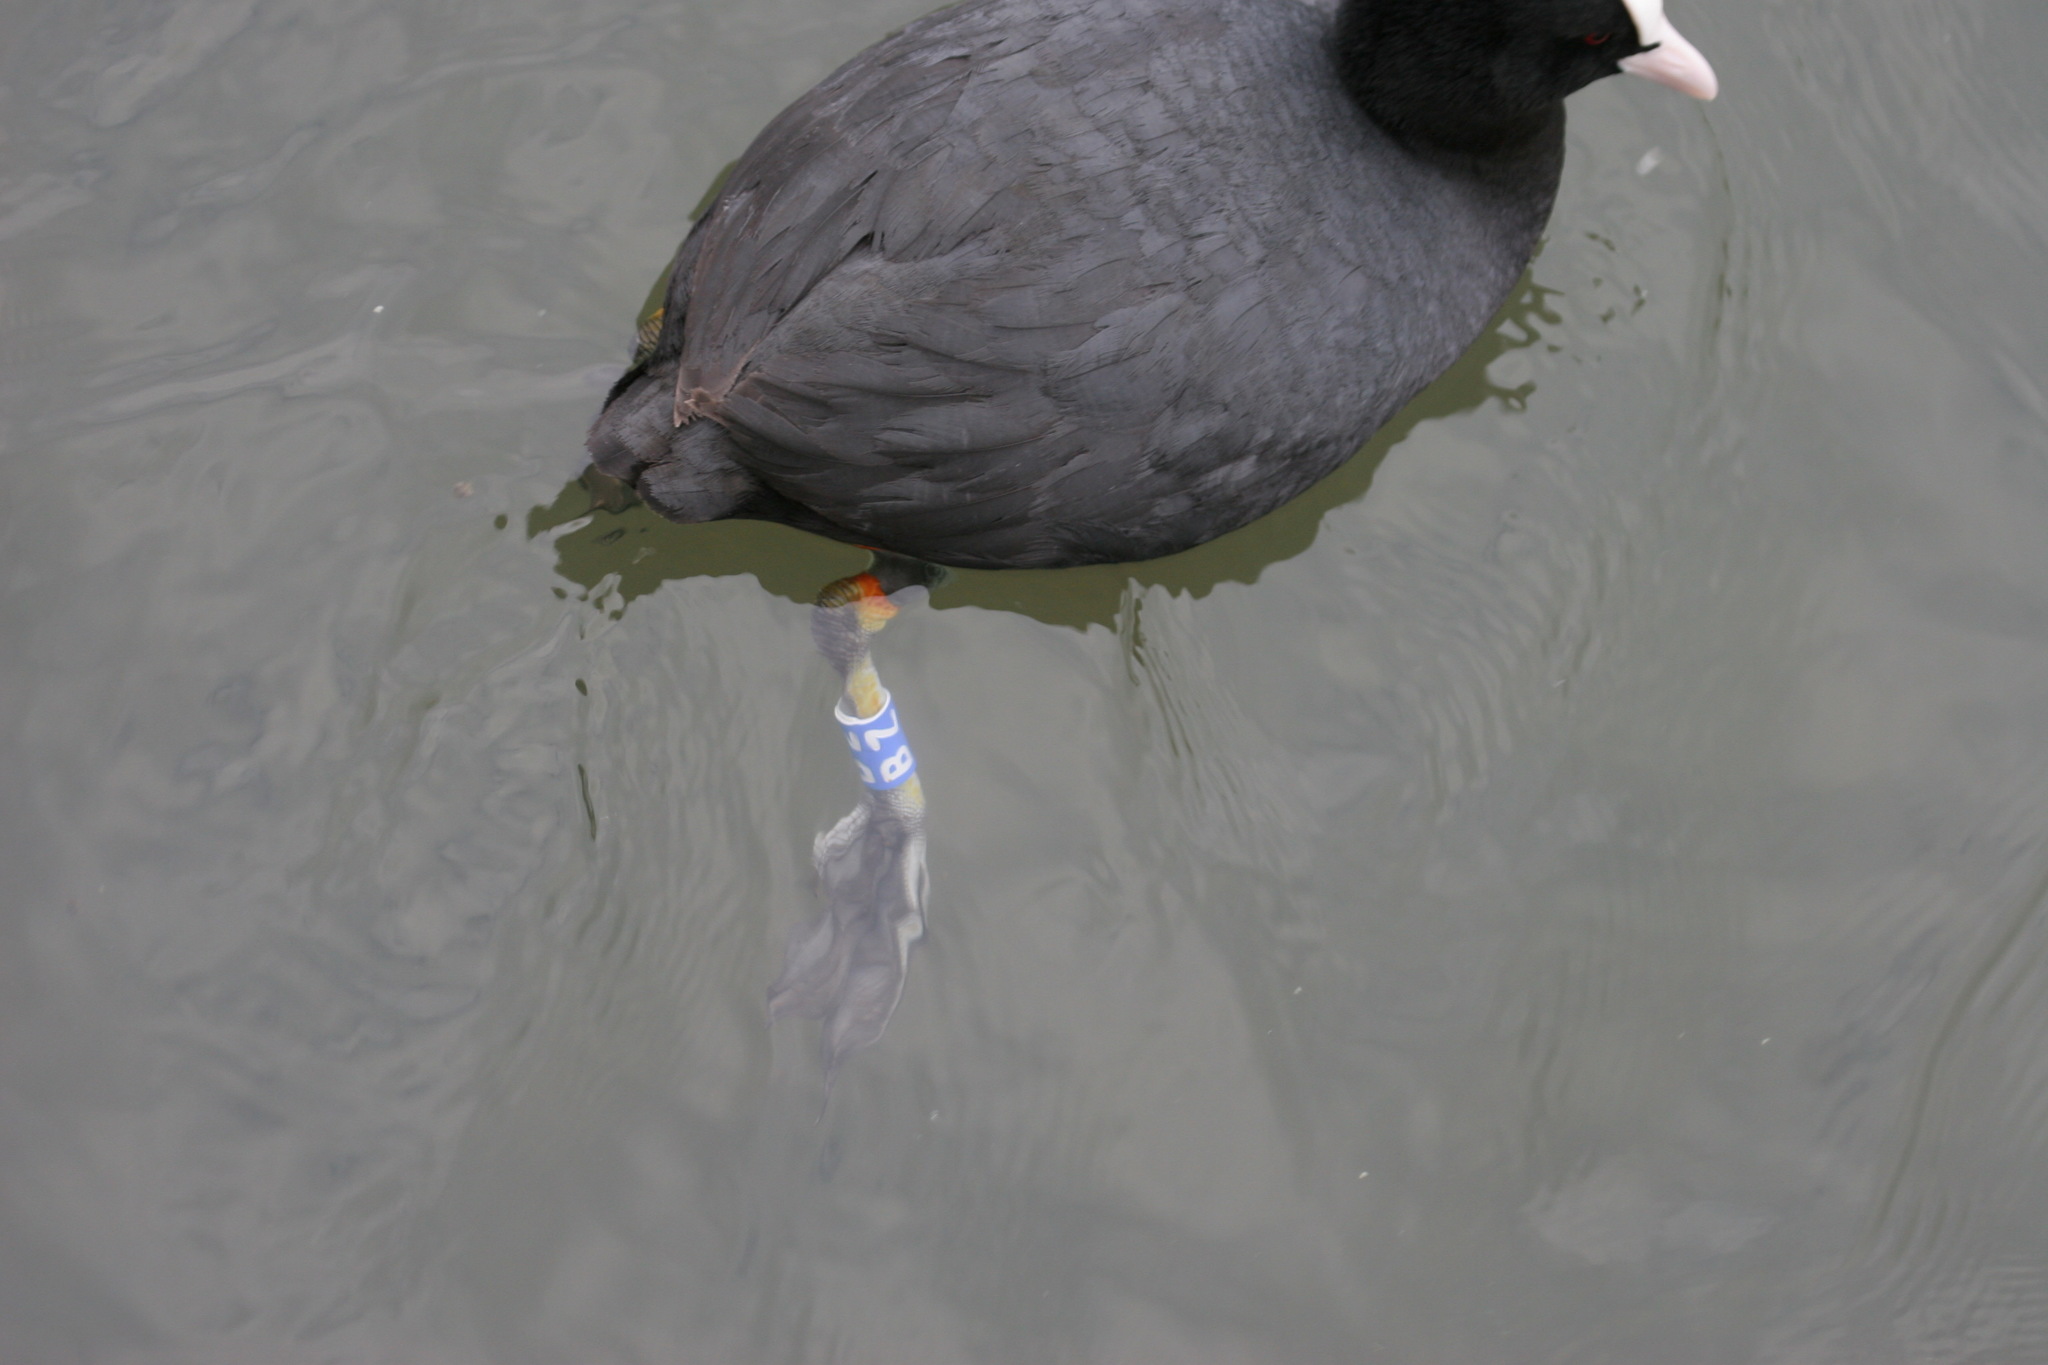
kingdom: Animalia
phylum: Chordata
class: Aves
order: Gruiformes
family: Rallidae
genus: Fulica
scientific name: Fulica atra
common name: Eurasian coot
